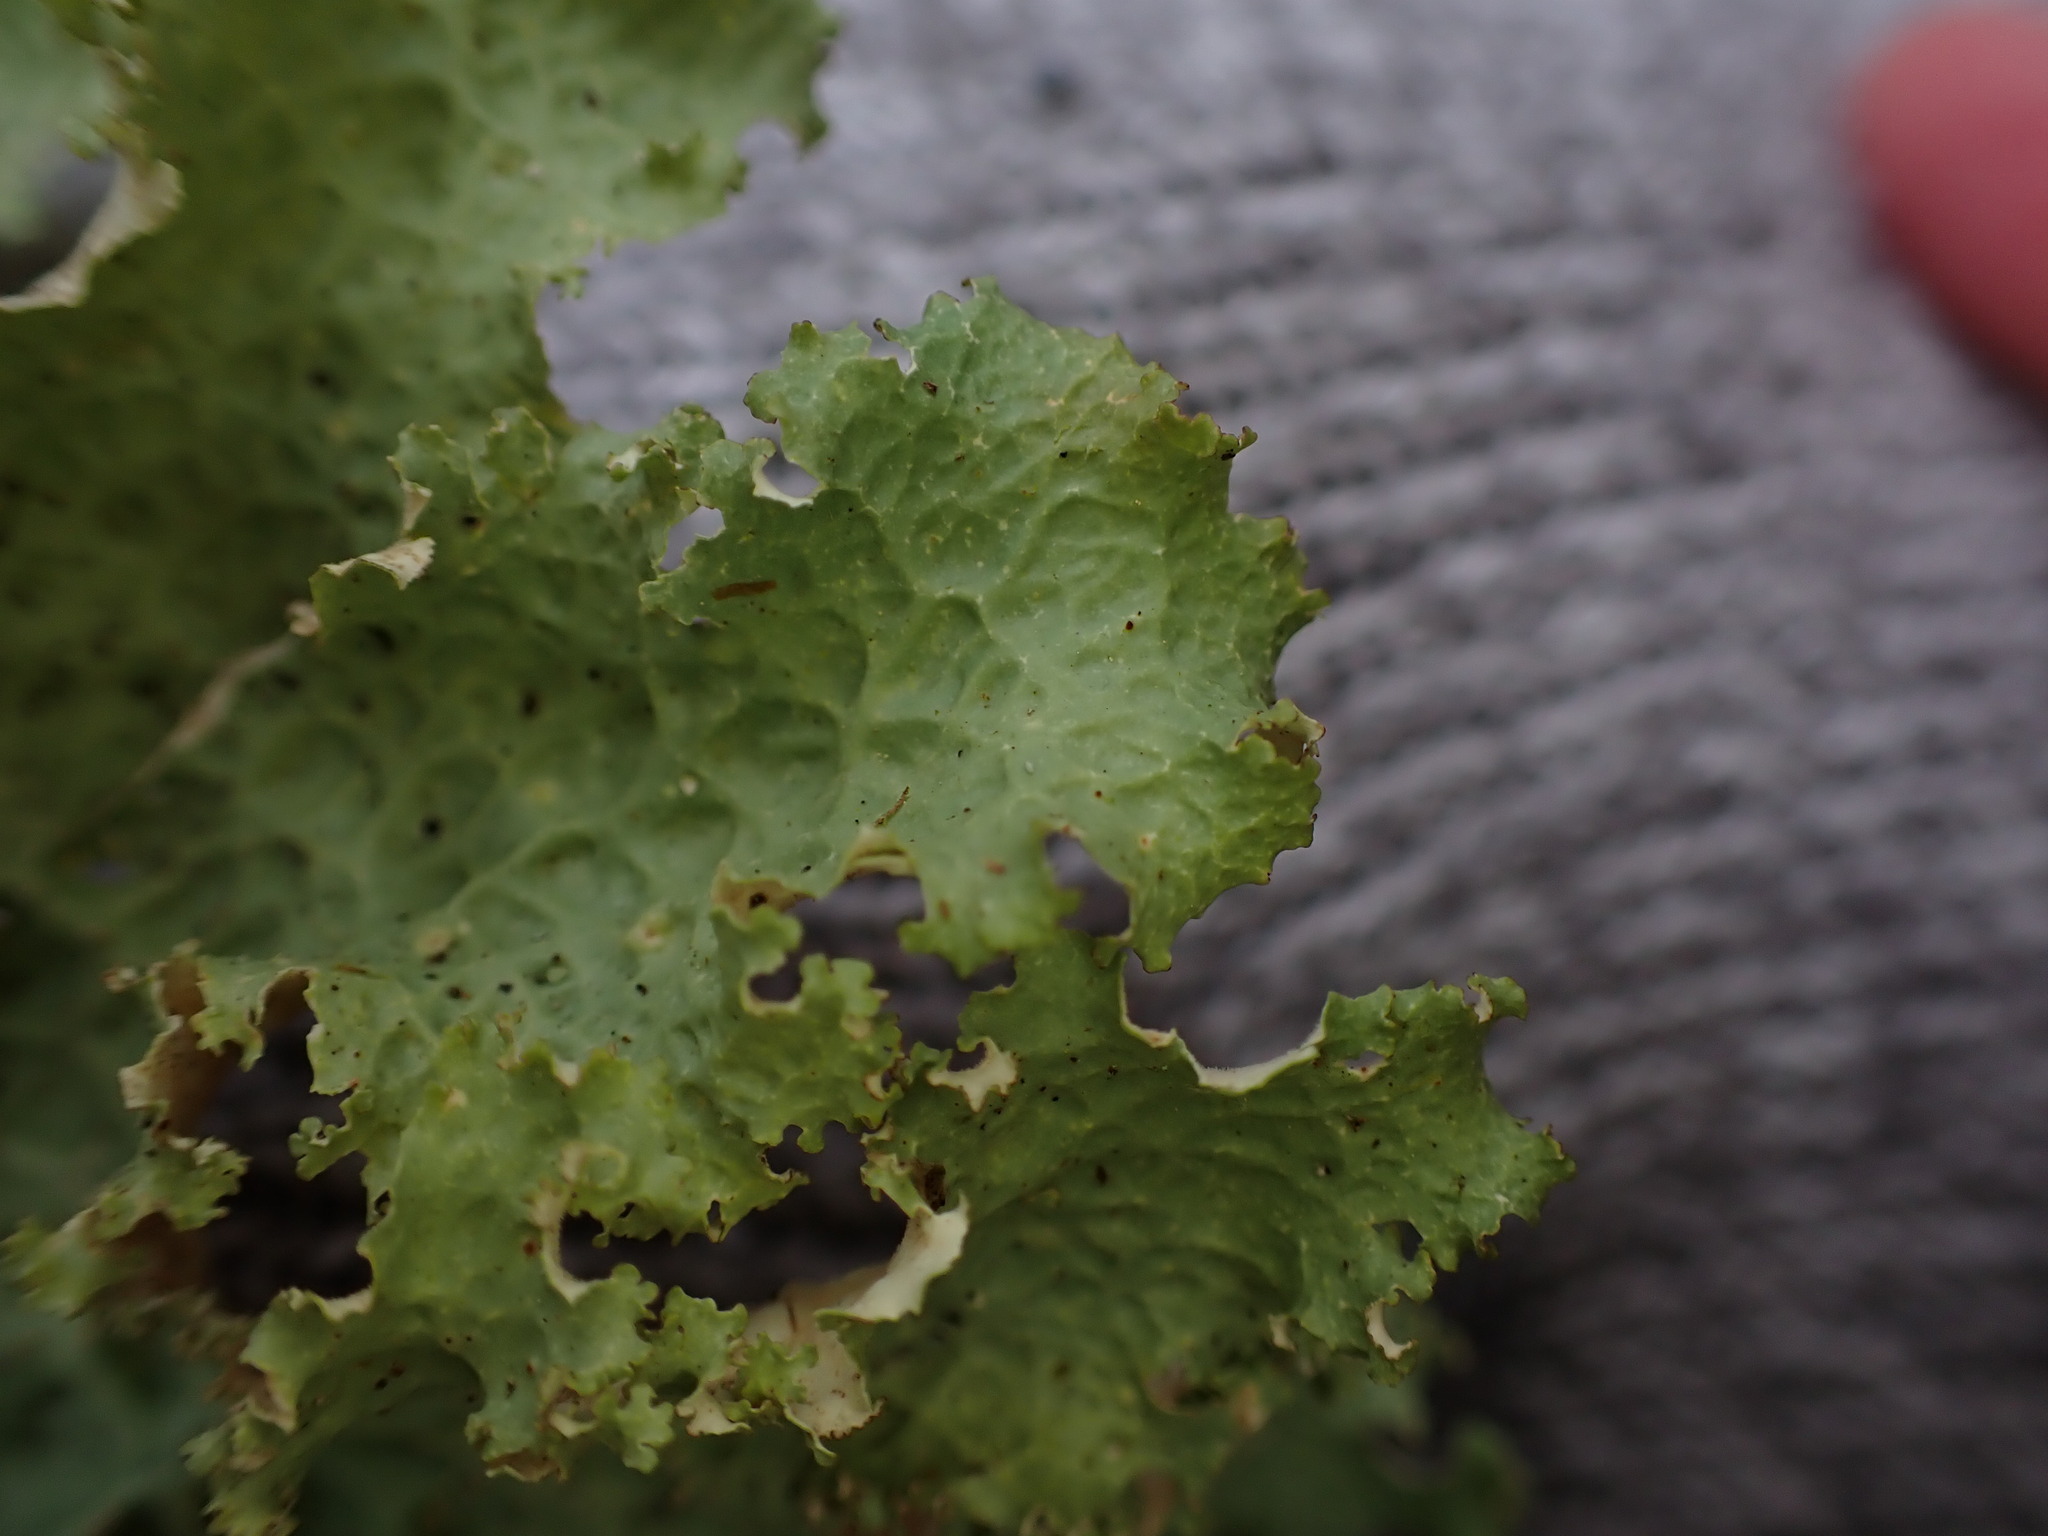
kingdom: Fungi
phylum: Ascomycota
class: Lecanoromycetes
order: Peltigerales
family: Lobariaceae
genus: Lobaria
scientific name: Lobaria oregana
